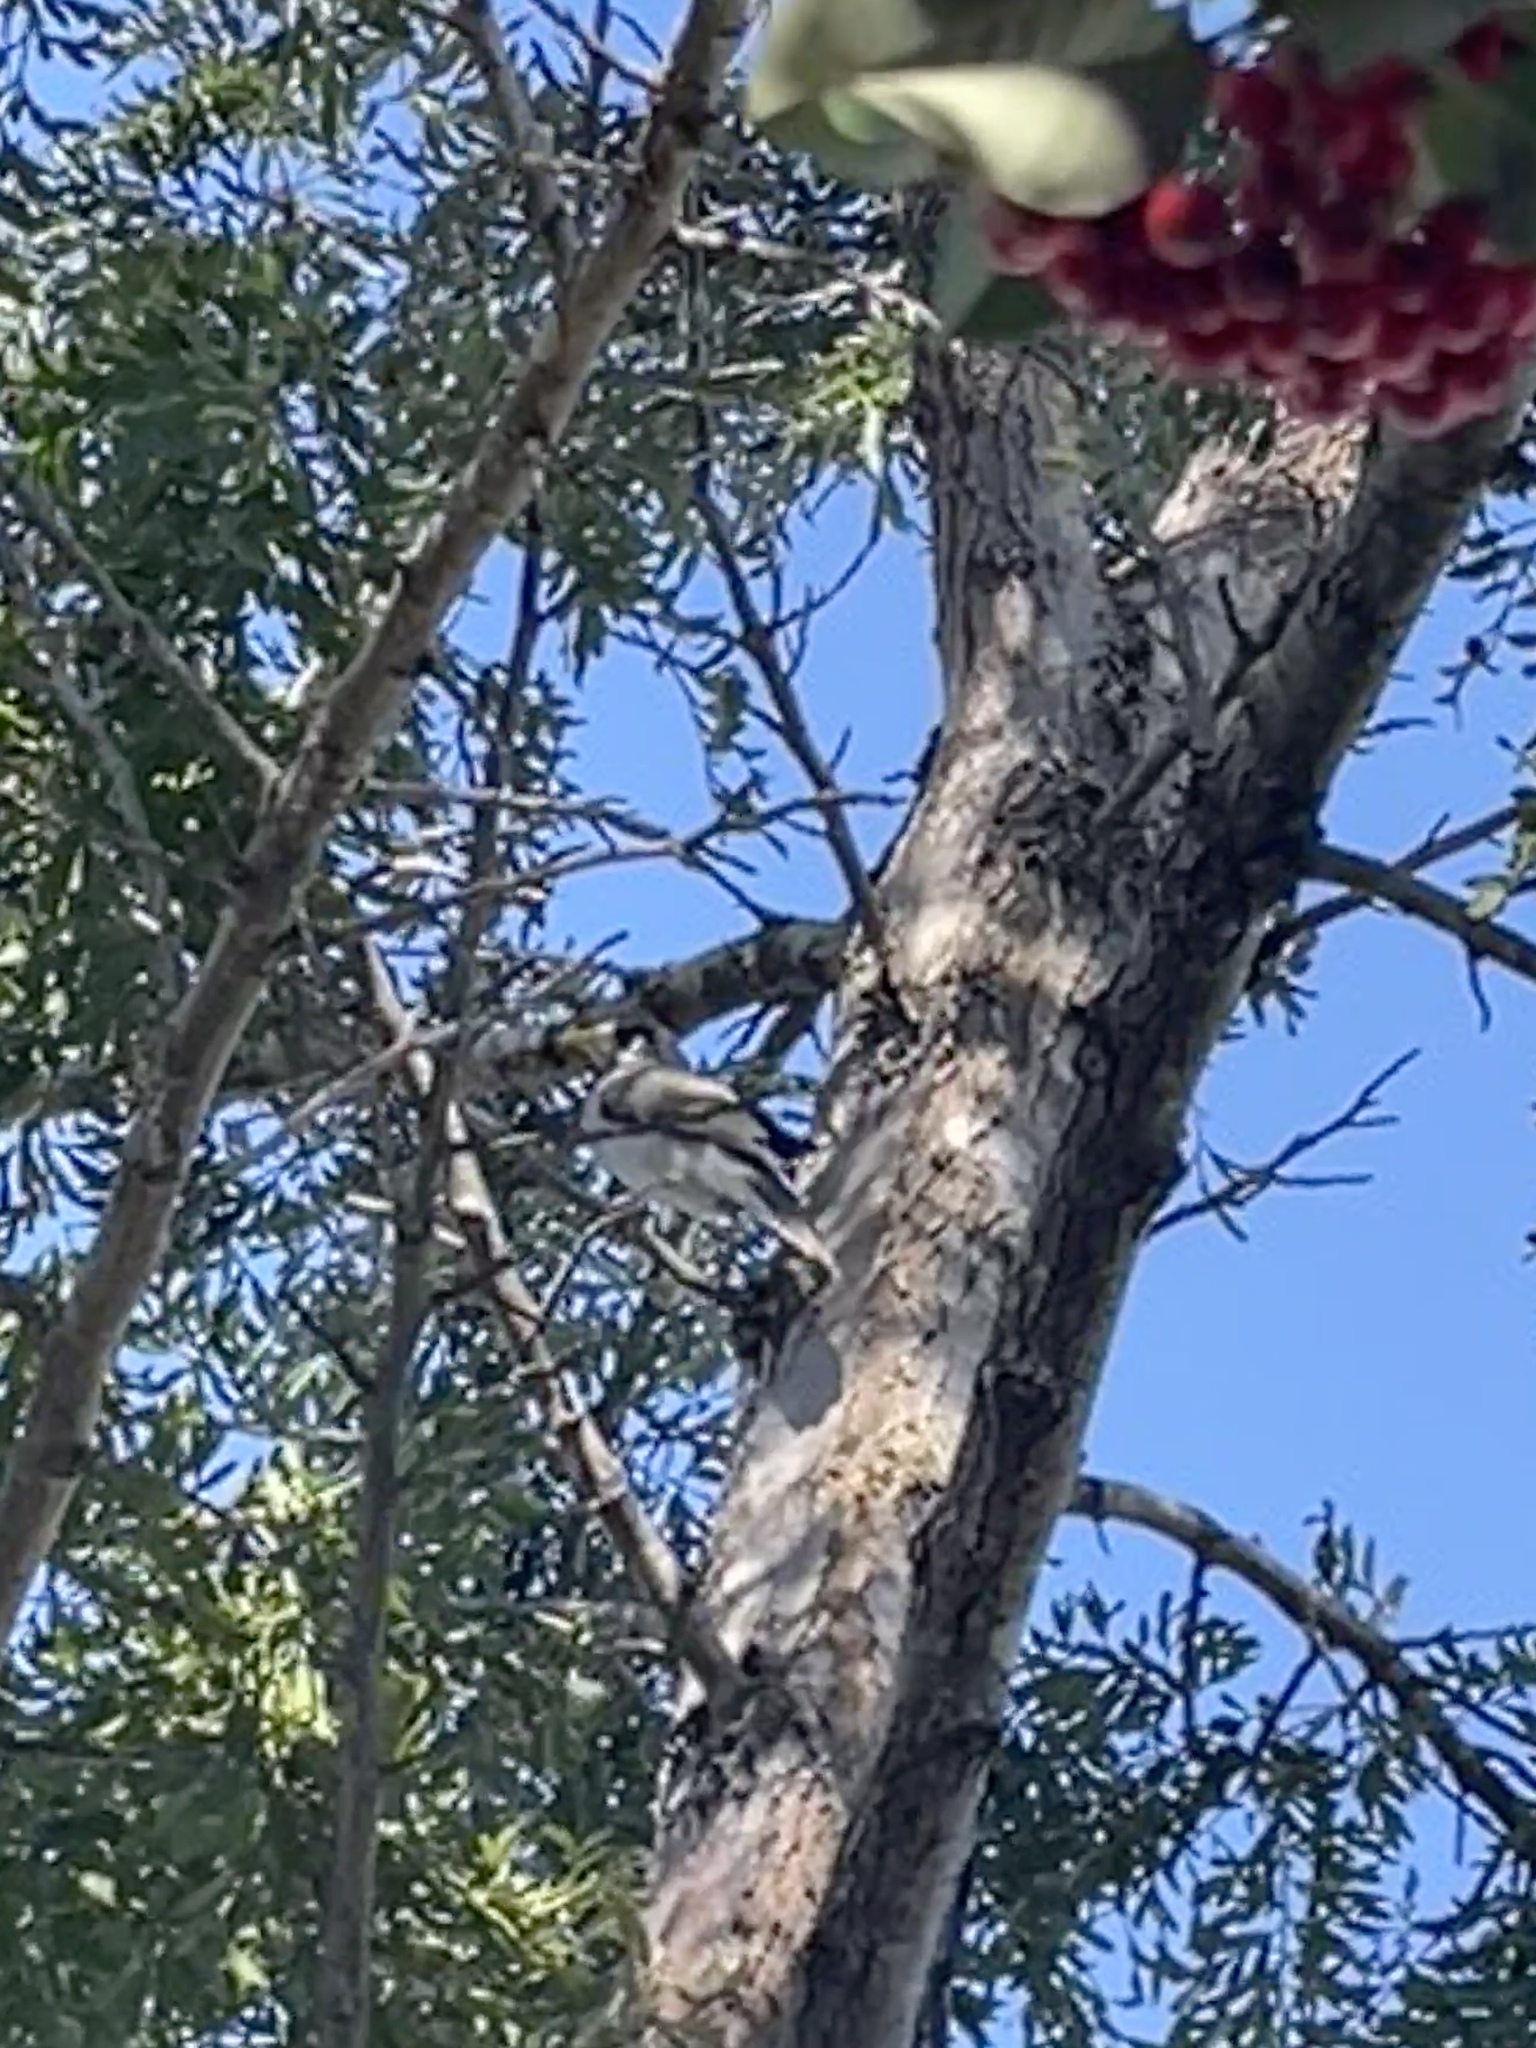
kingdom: Animalia
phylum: Chordata
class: Aves
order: Passeriformes
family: Meliphagidae
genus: Manorina
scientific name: Manorina melanocephala
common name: Noisy miner
